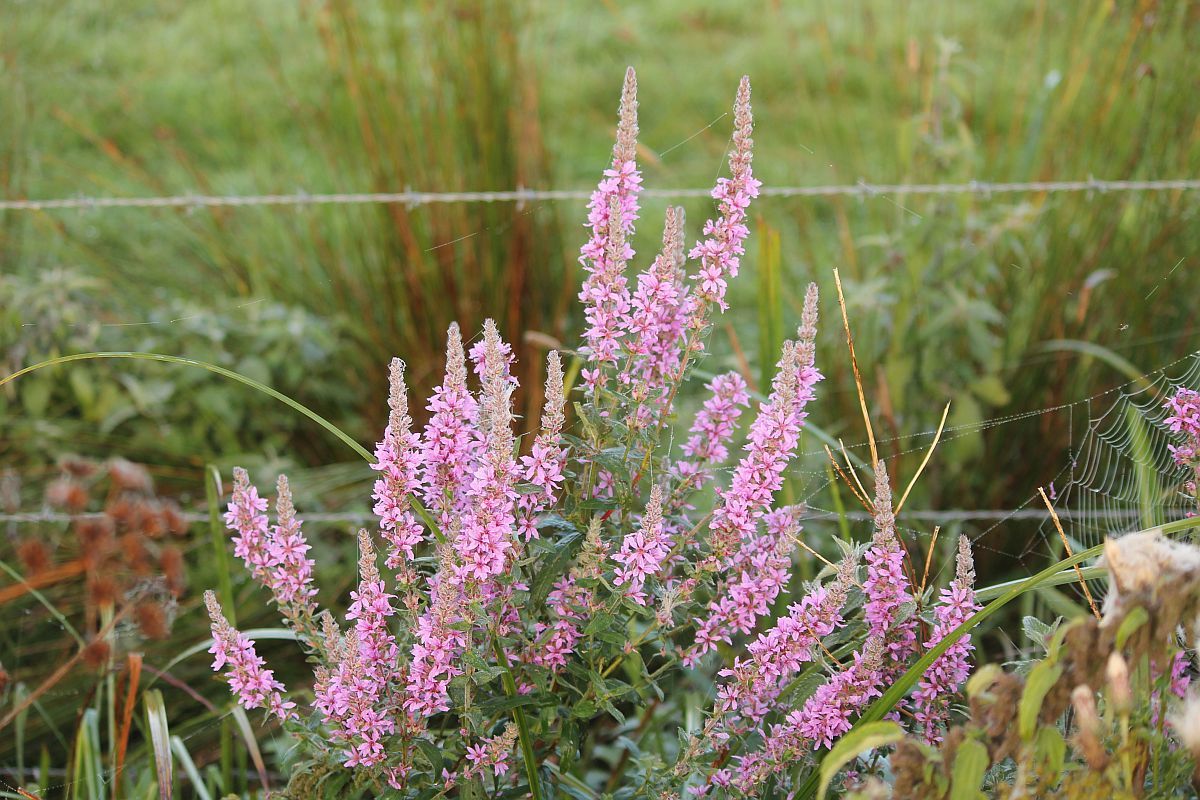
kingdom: Plantae
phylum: Tracheophyta
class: Magnoliopsida
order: Myrtales
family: Lythraceae
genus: Lythrum
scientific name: Lythrum salicaria
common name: Purple loosestrife
